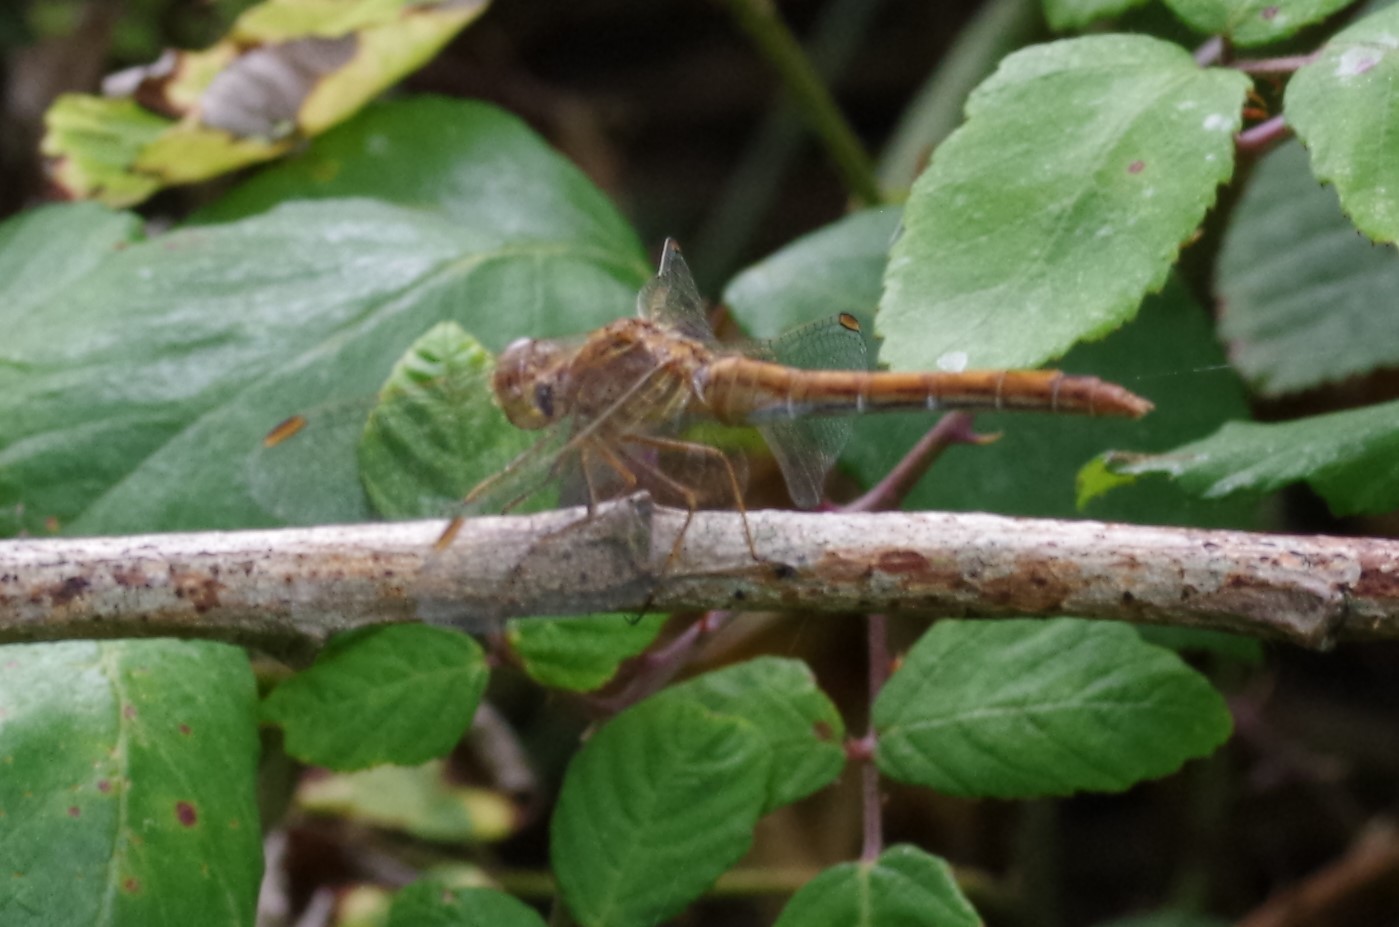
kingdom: Animalia
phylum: Arthropoda
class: Insecta
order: Odonata
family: Libellulidae
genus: Sympetrum
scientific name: Sympetrum meridionale
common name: Southern darter
